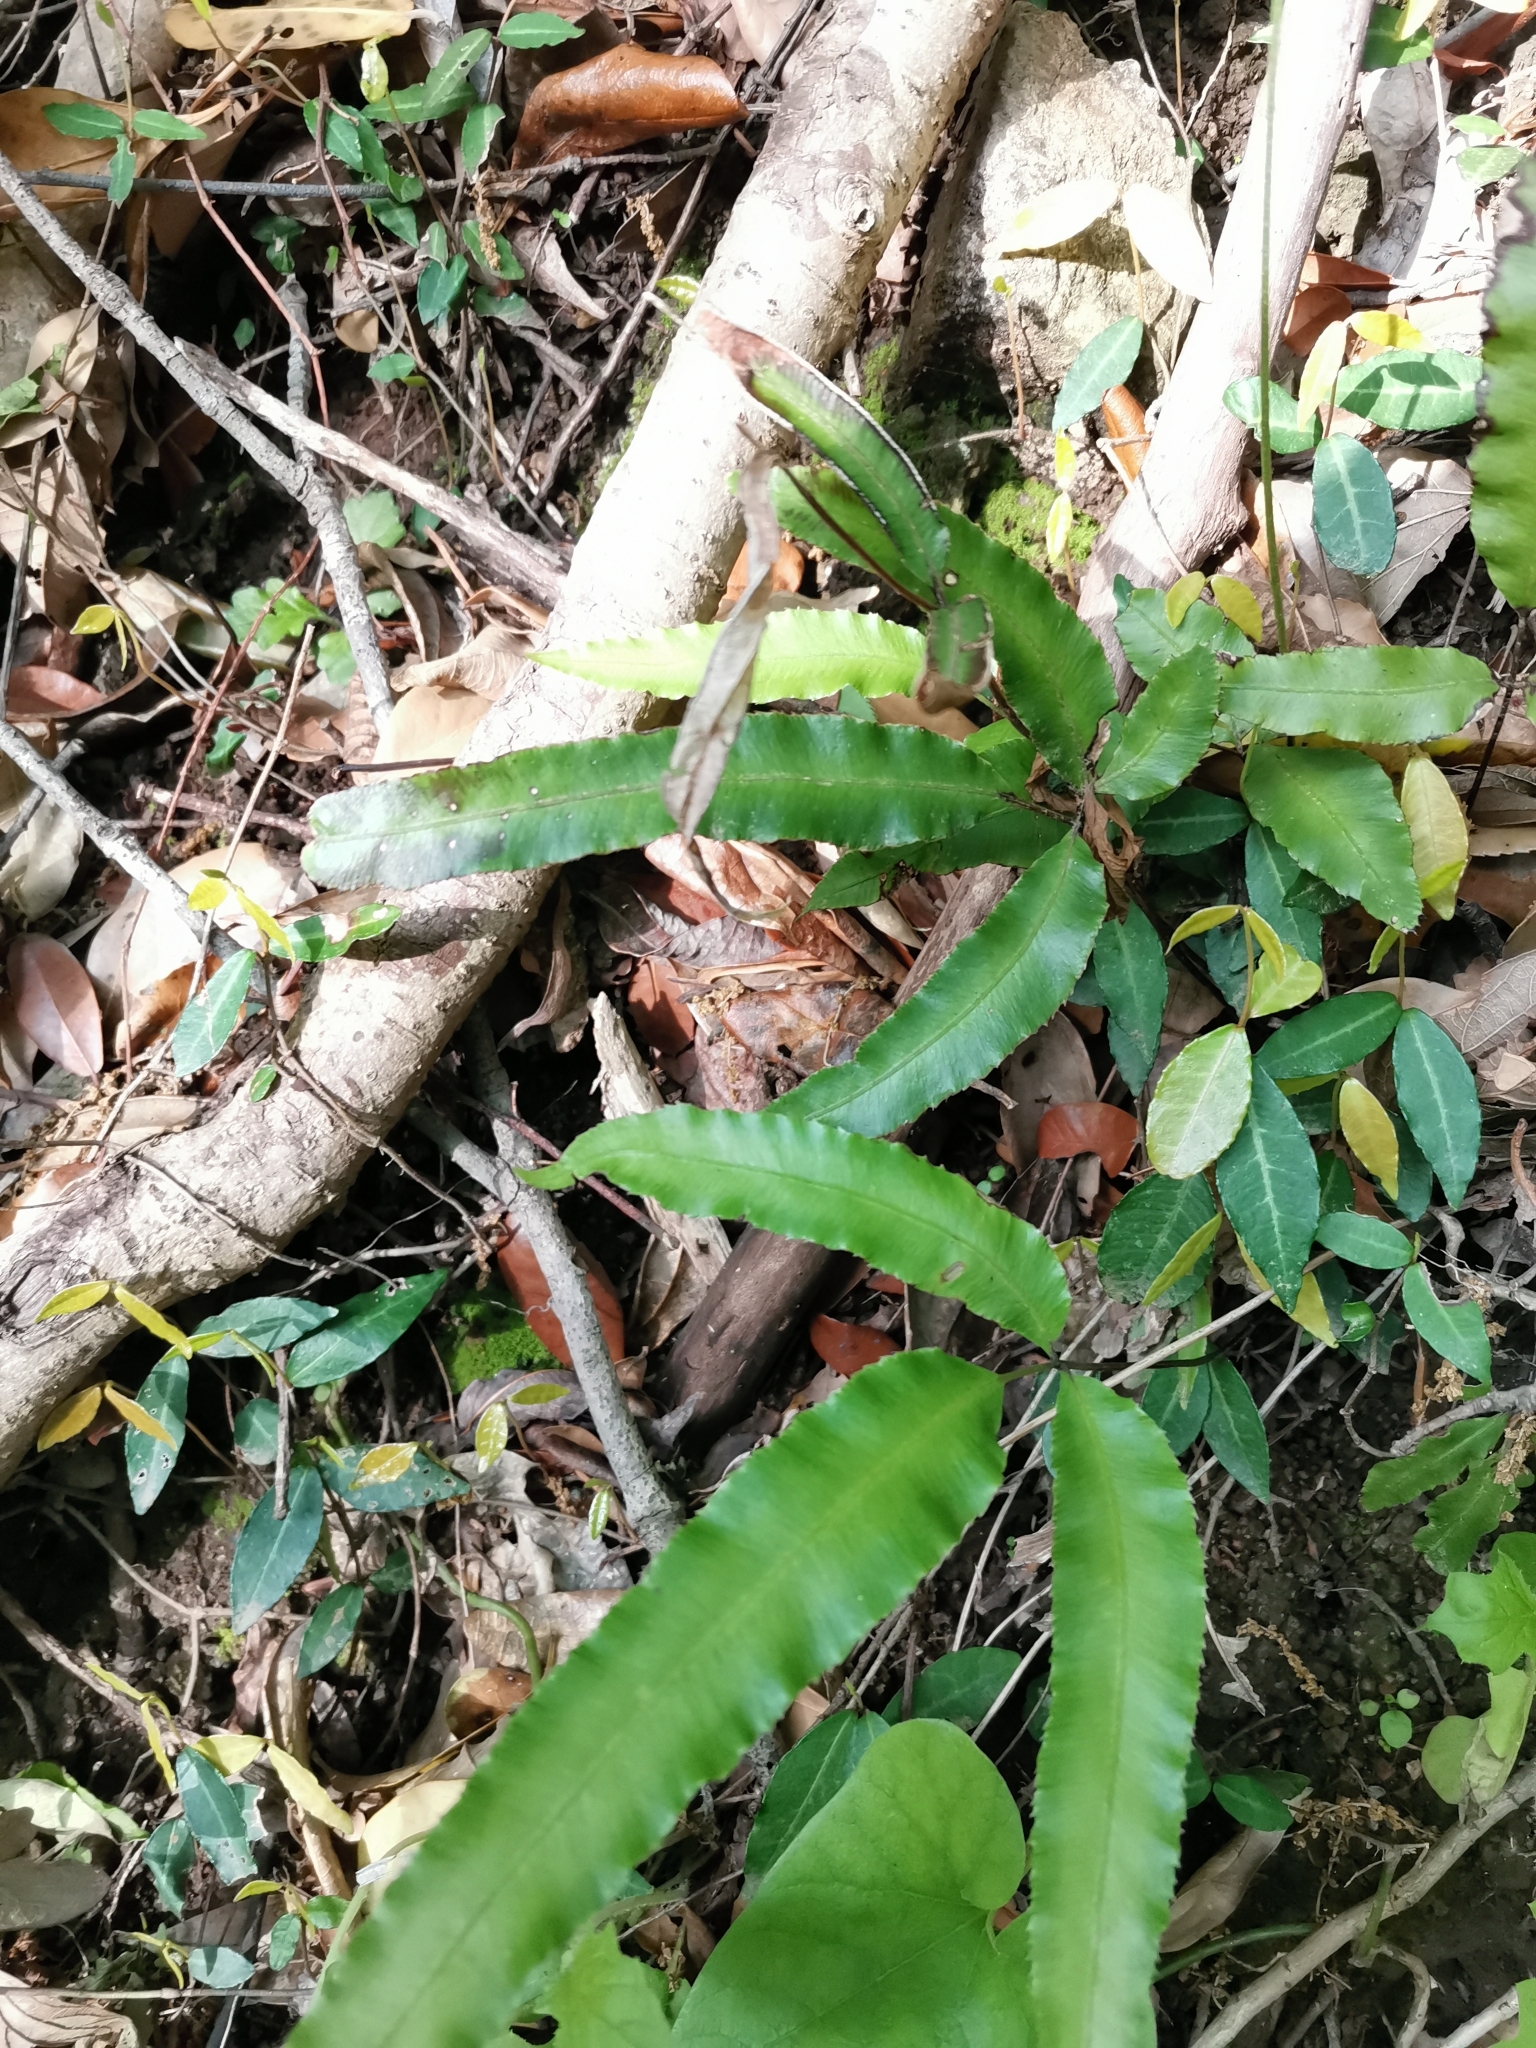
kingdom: Plantae
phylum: Tracheophyta
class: Polypodiopsida
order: Polypodiales
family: Pteridaceae
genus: Pteris
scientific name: Pteris parkeri
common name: Cretan brake
